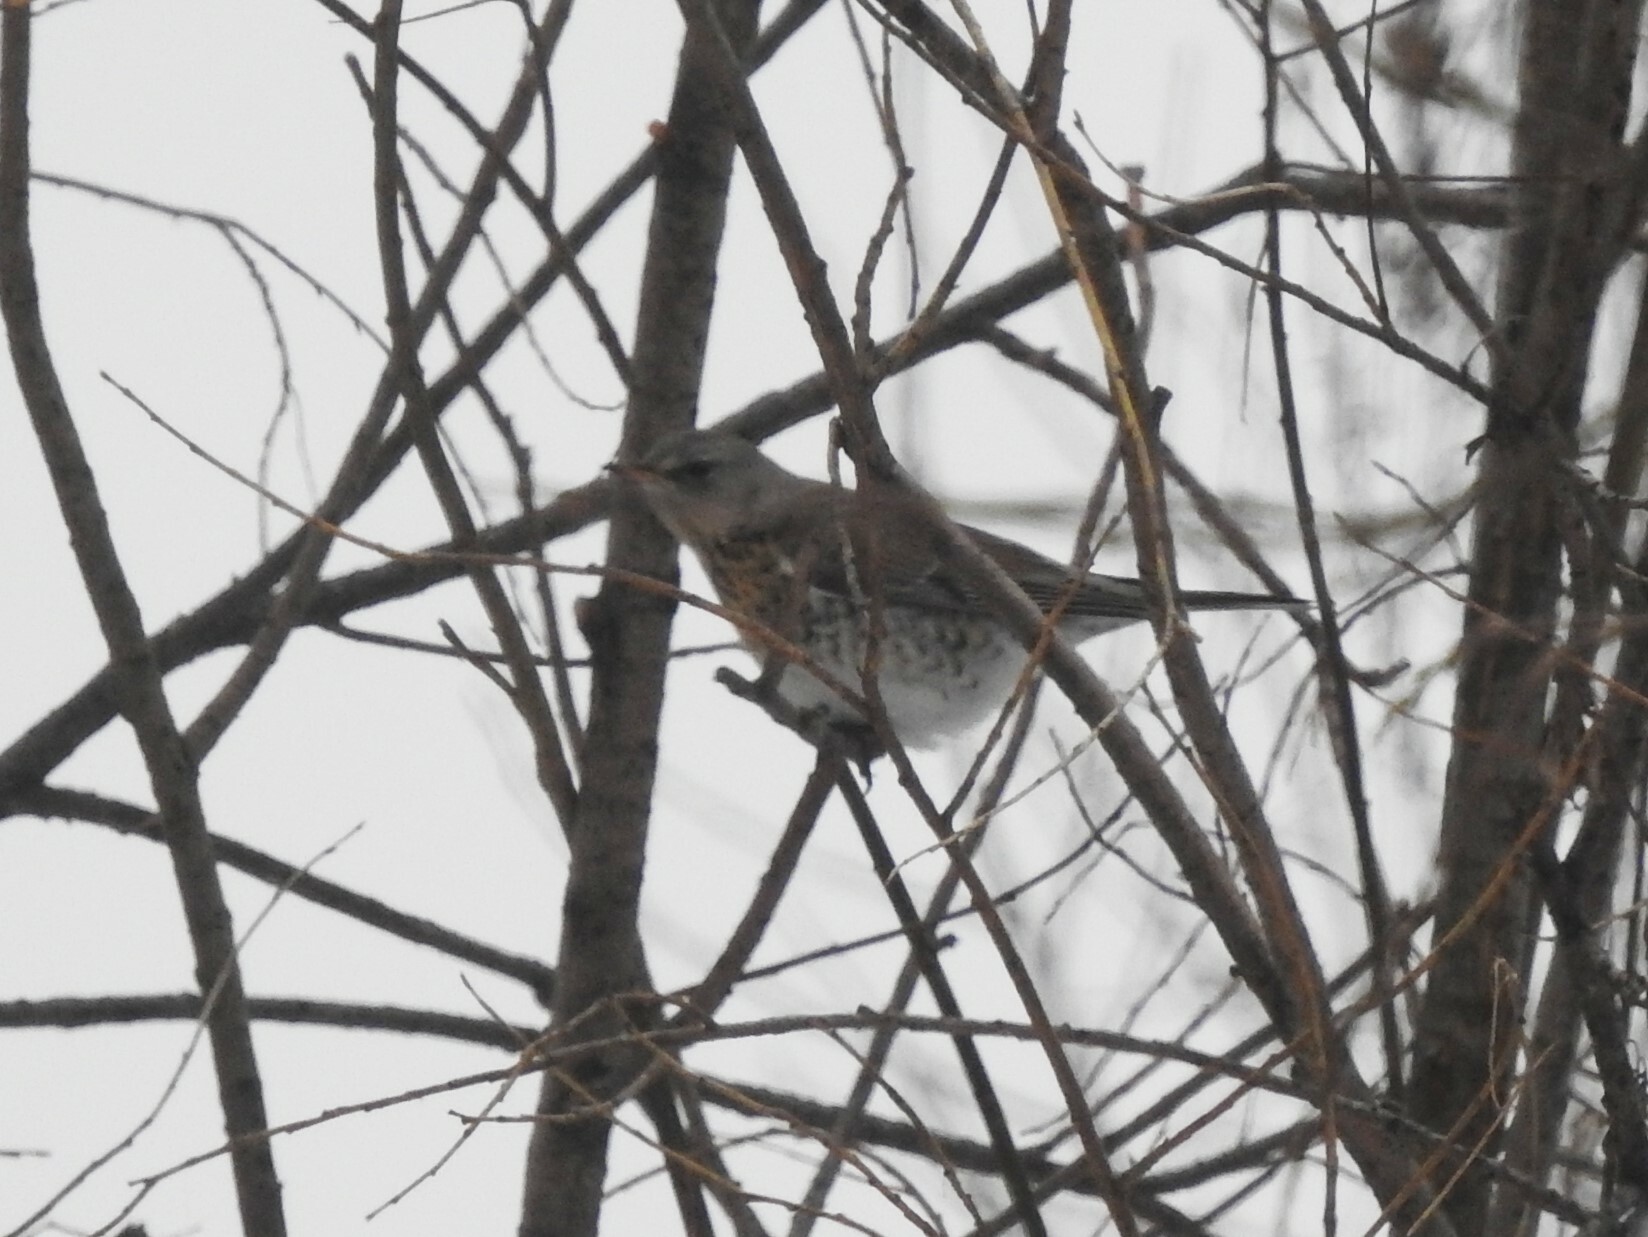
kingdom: Animalia
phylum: Chordata
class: Aves
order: Passeriformes
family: Turdidae
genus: Turdus
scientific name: Turdus pilaris
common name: Fieldfare
